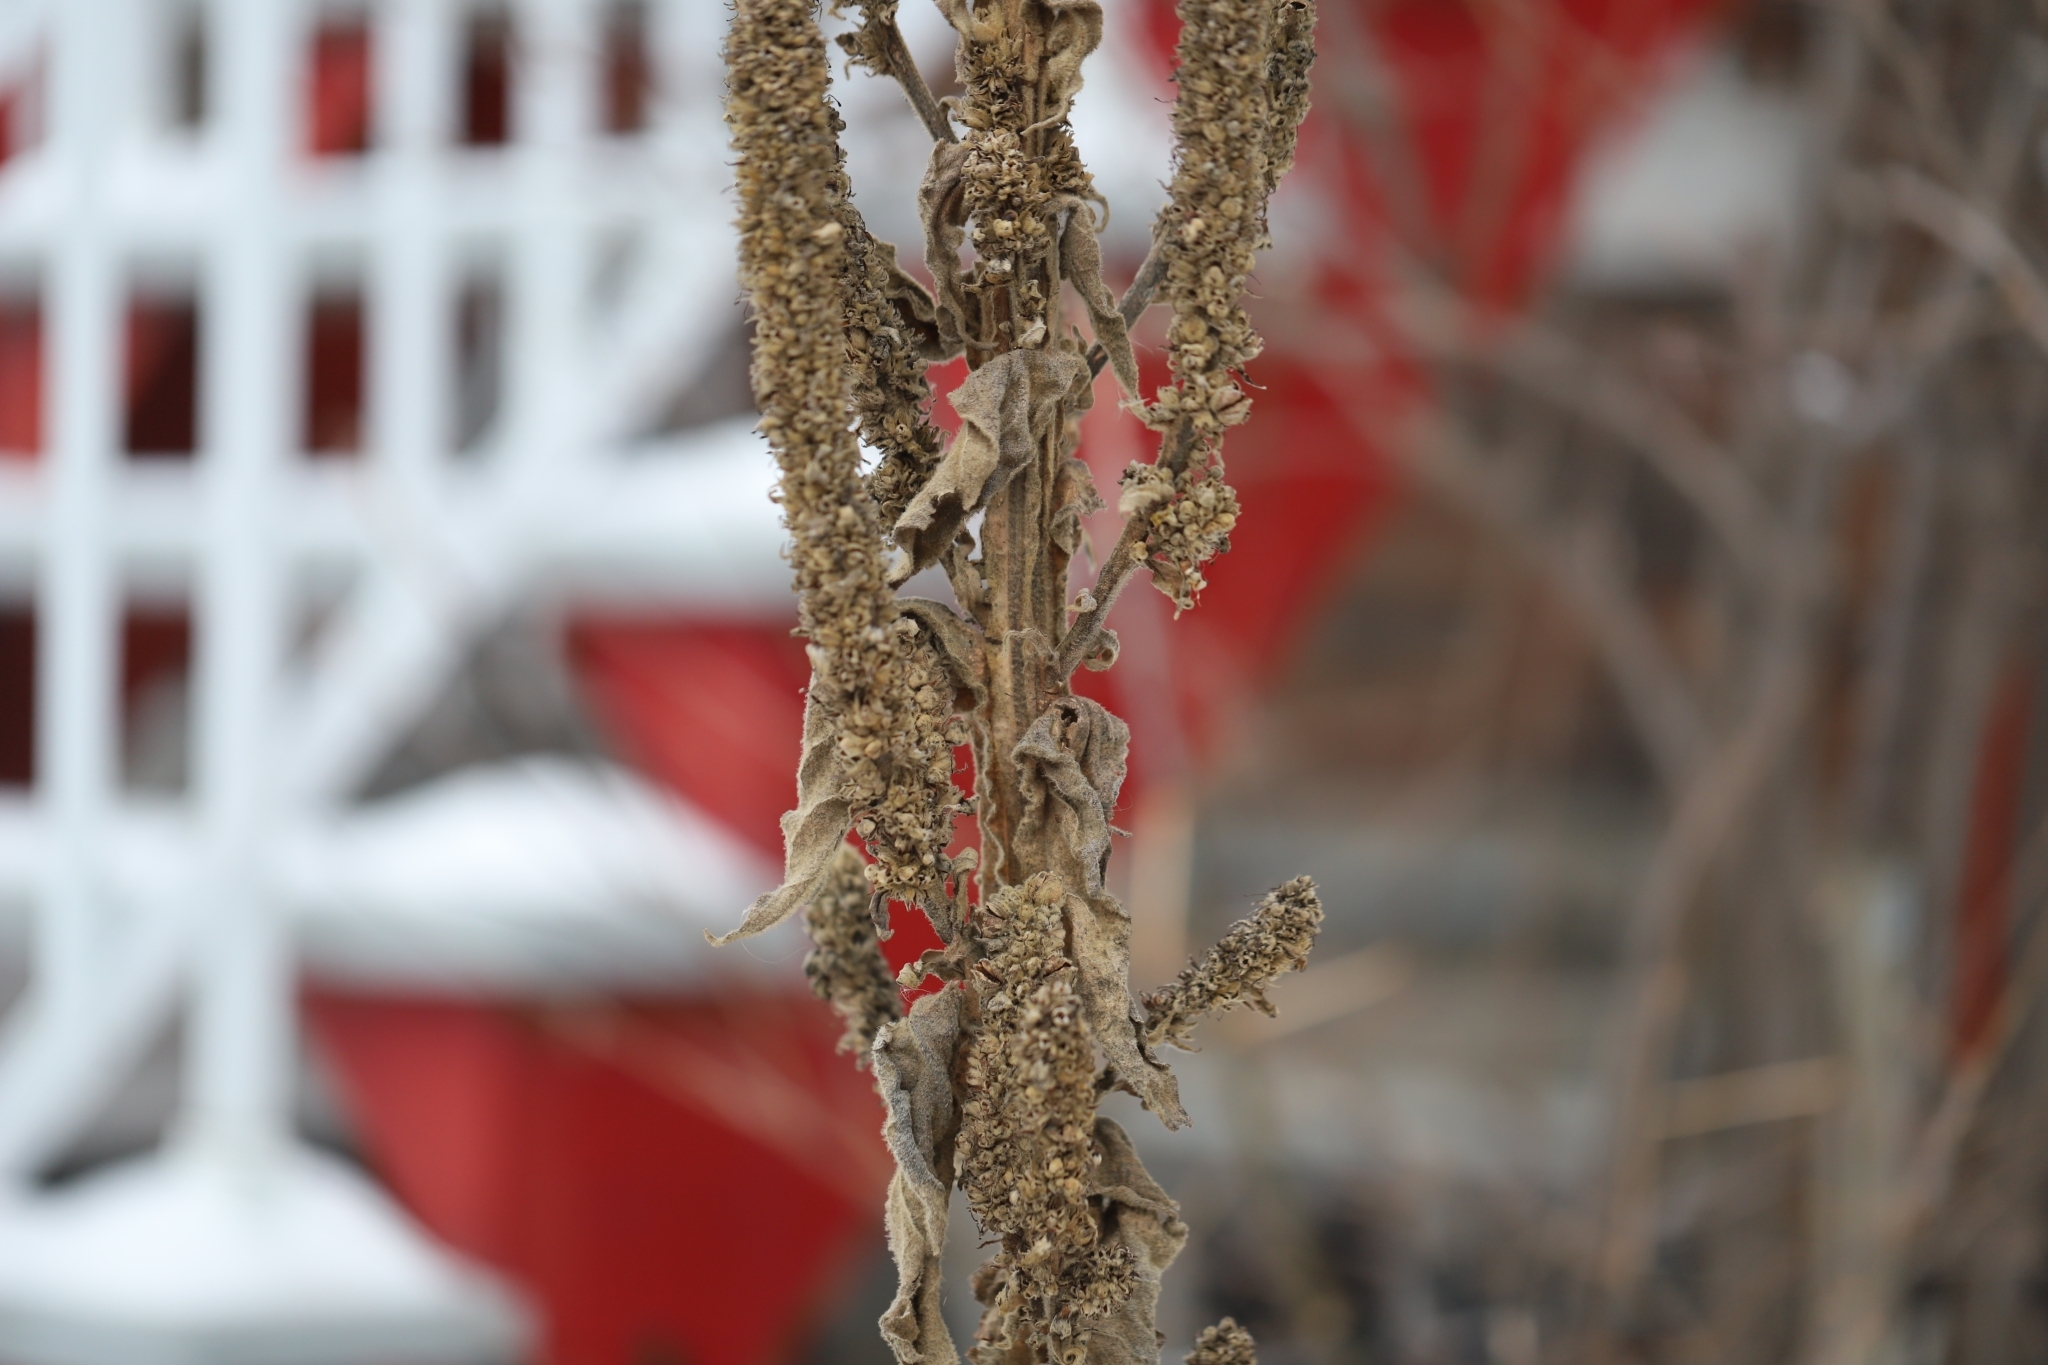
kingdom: Plantae
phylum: Tracheophyta
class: Magnoliopsida
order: Lamiales
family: Scrophulariaceae
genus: Verbascum
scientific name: Verbascum thapsus
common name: Common mullein
